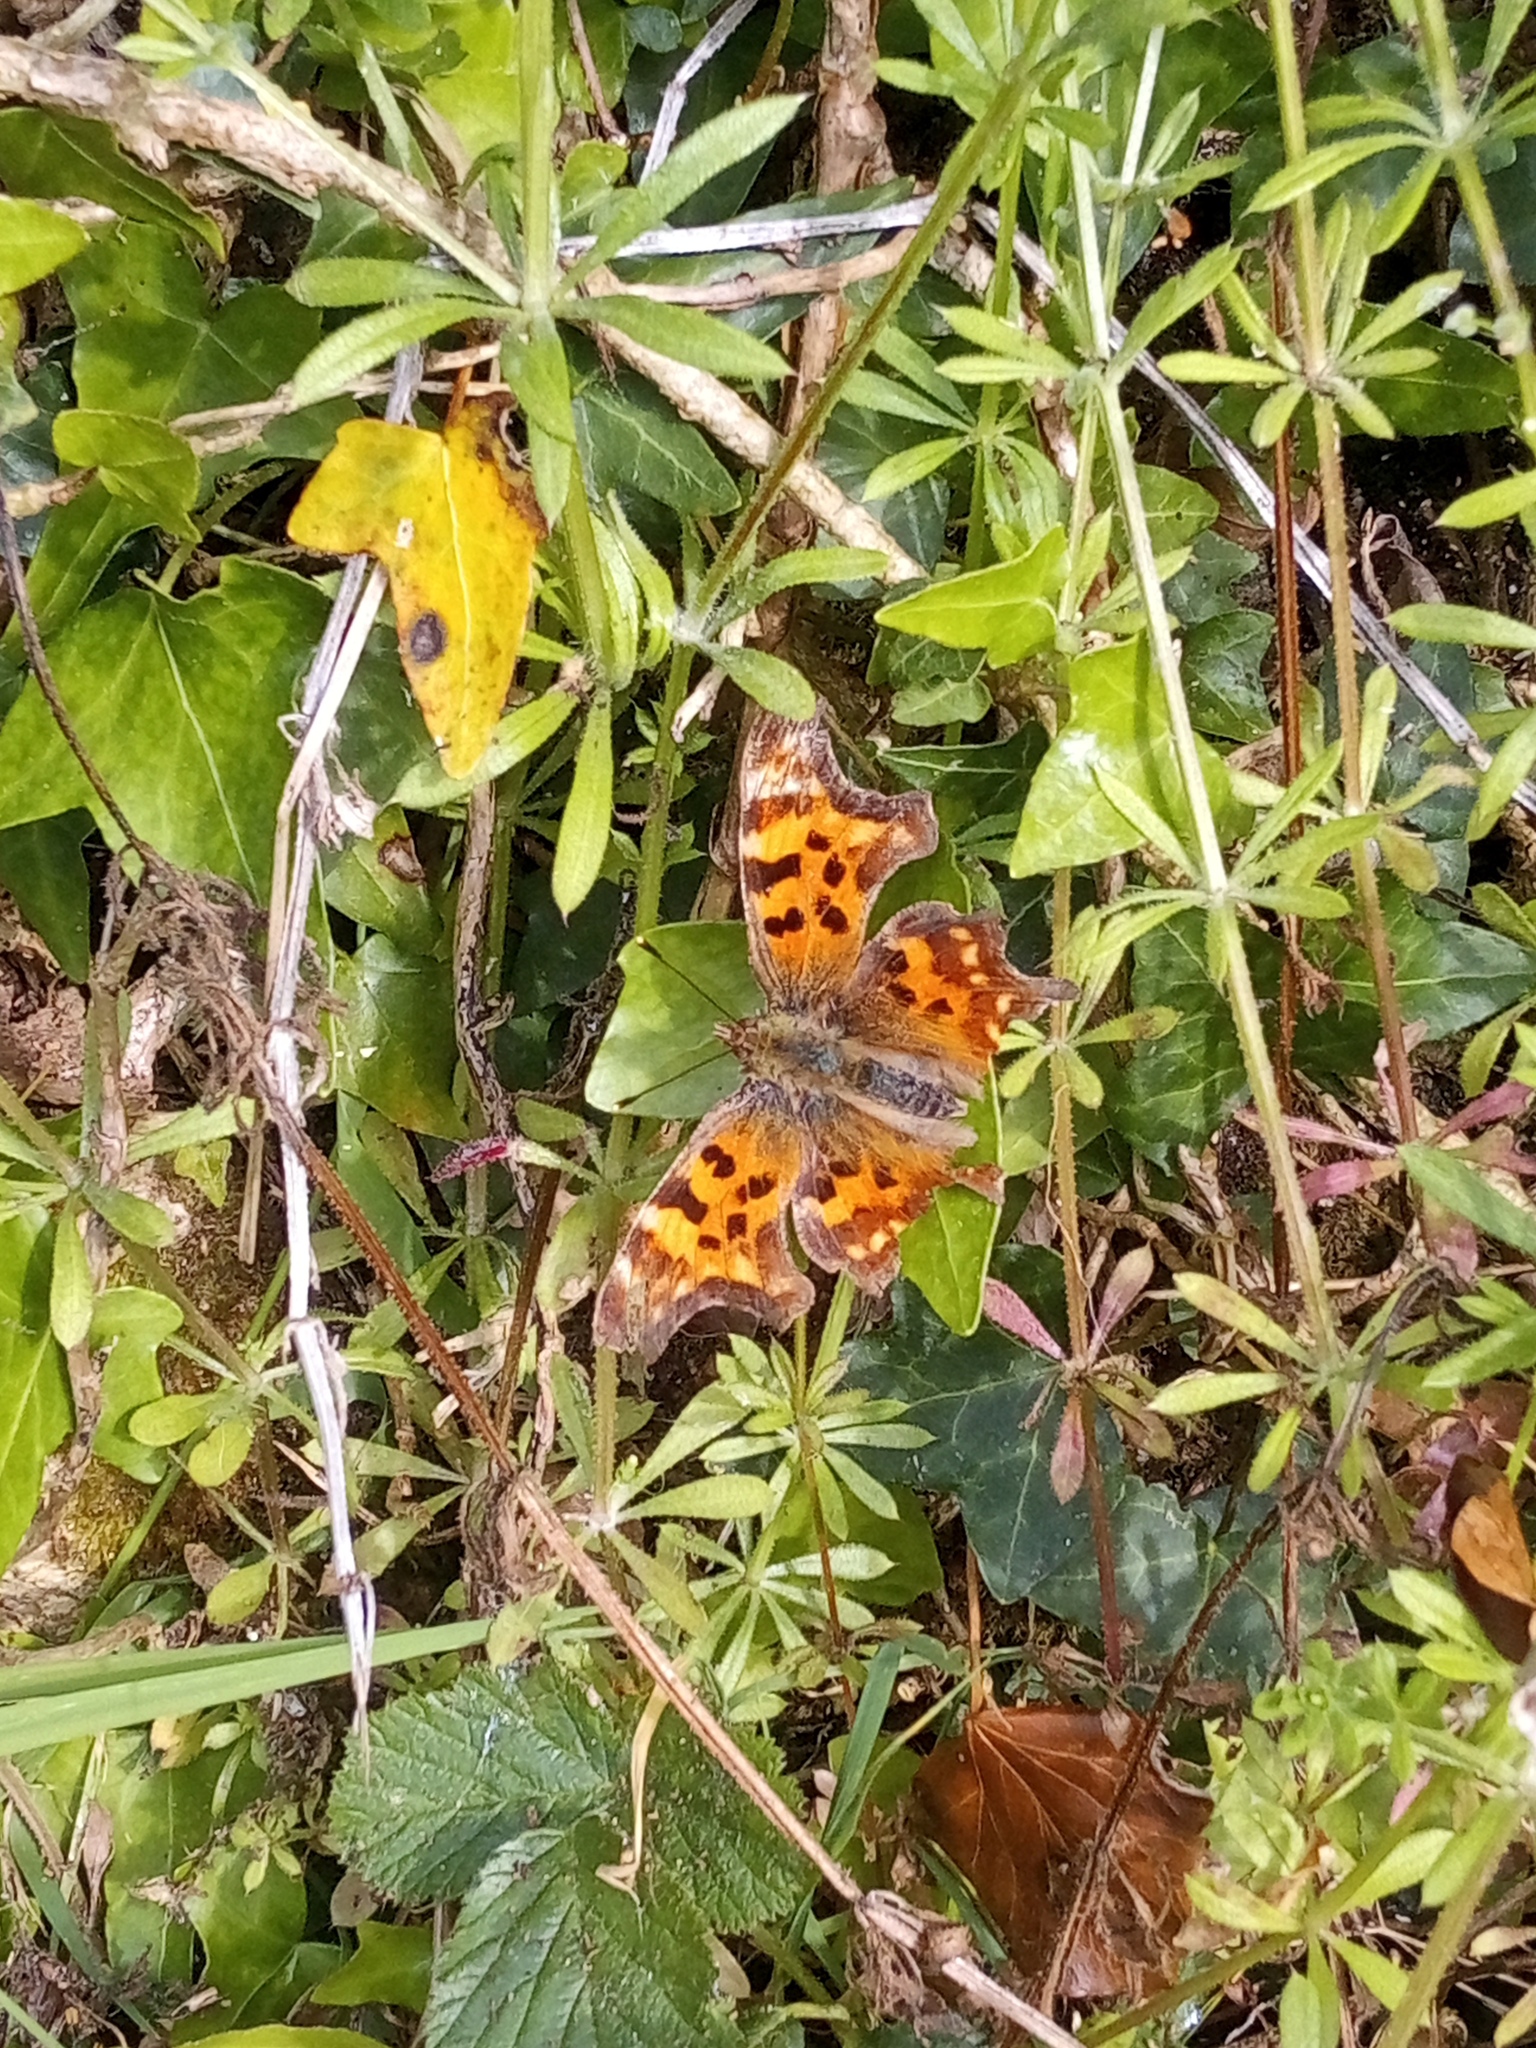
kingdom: Animalia
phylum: Arthropoda
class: Insecta
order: Lepidoptera
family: Nymphalidae
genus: Polygonia
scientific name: Polygonia c-album
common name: Comma
